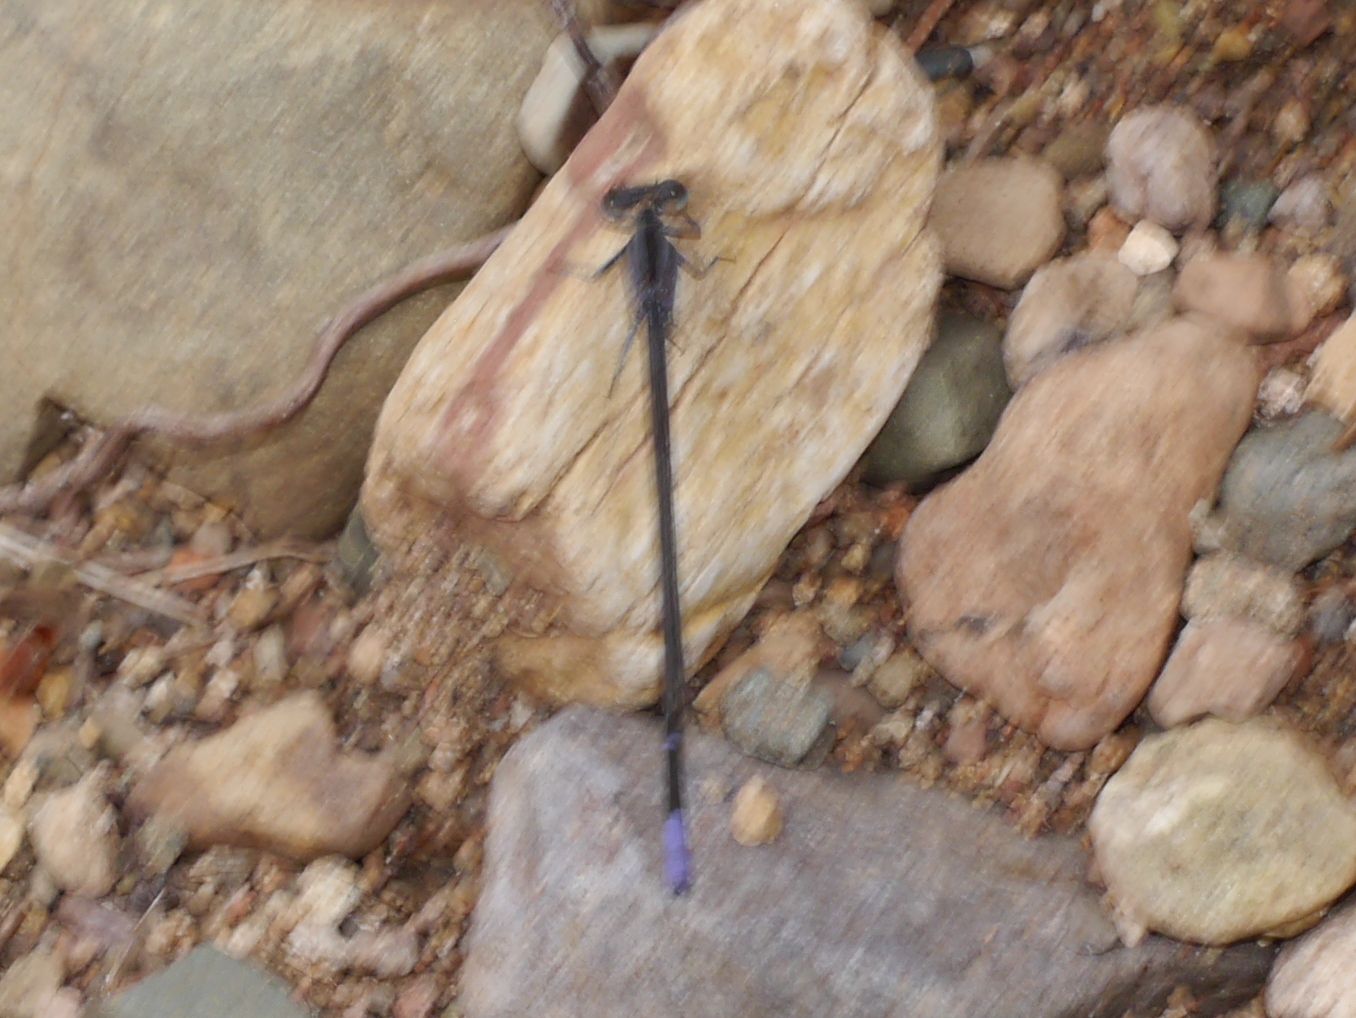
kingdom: Animalia
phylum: Arthropoda
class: Insecta
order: Odonata
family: Coenagrionidae
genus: Argia
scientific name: Argia funebris
